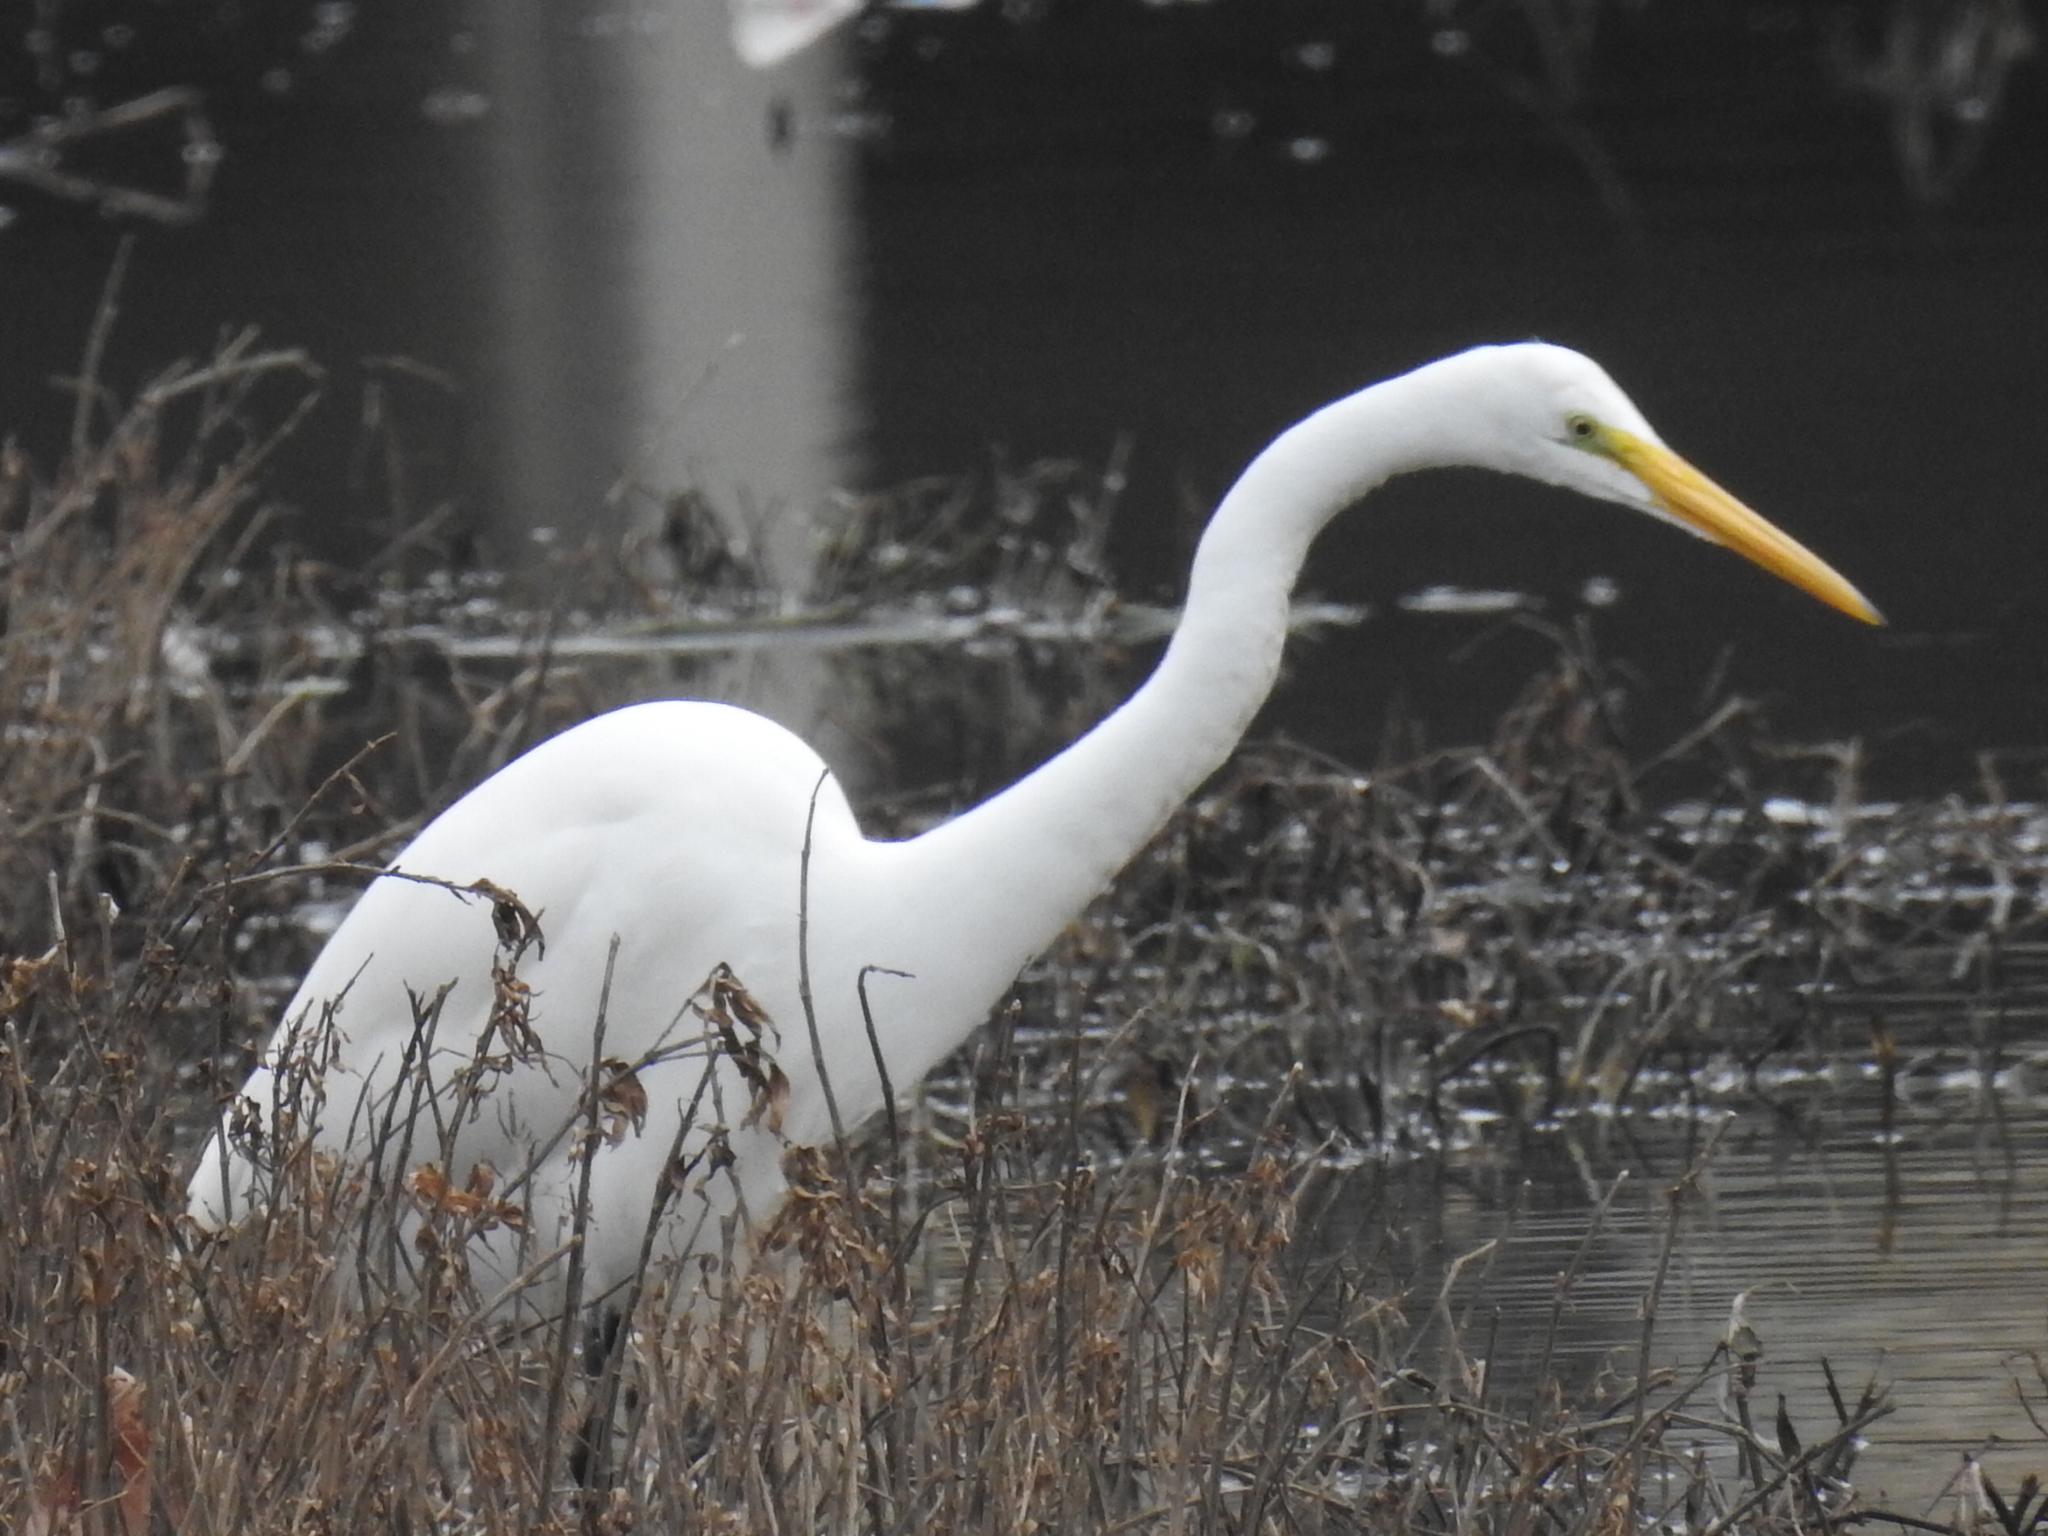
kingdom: Animalia
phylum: Chordata
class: Aves
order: Pelecaniformes
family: Ardeidae
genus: Ardea
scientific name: Ardea alba
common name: Great egret
